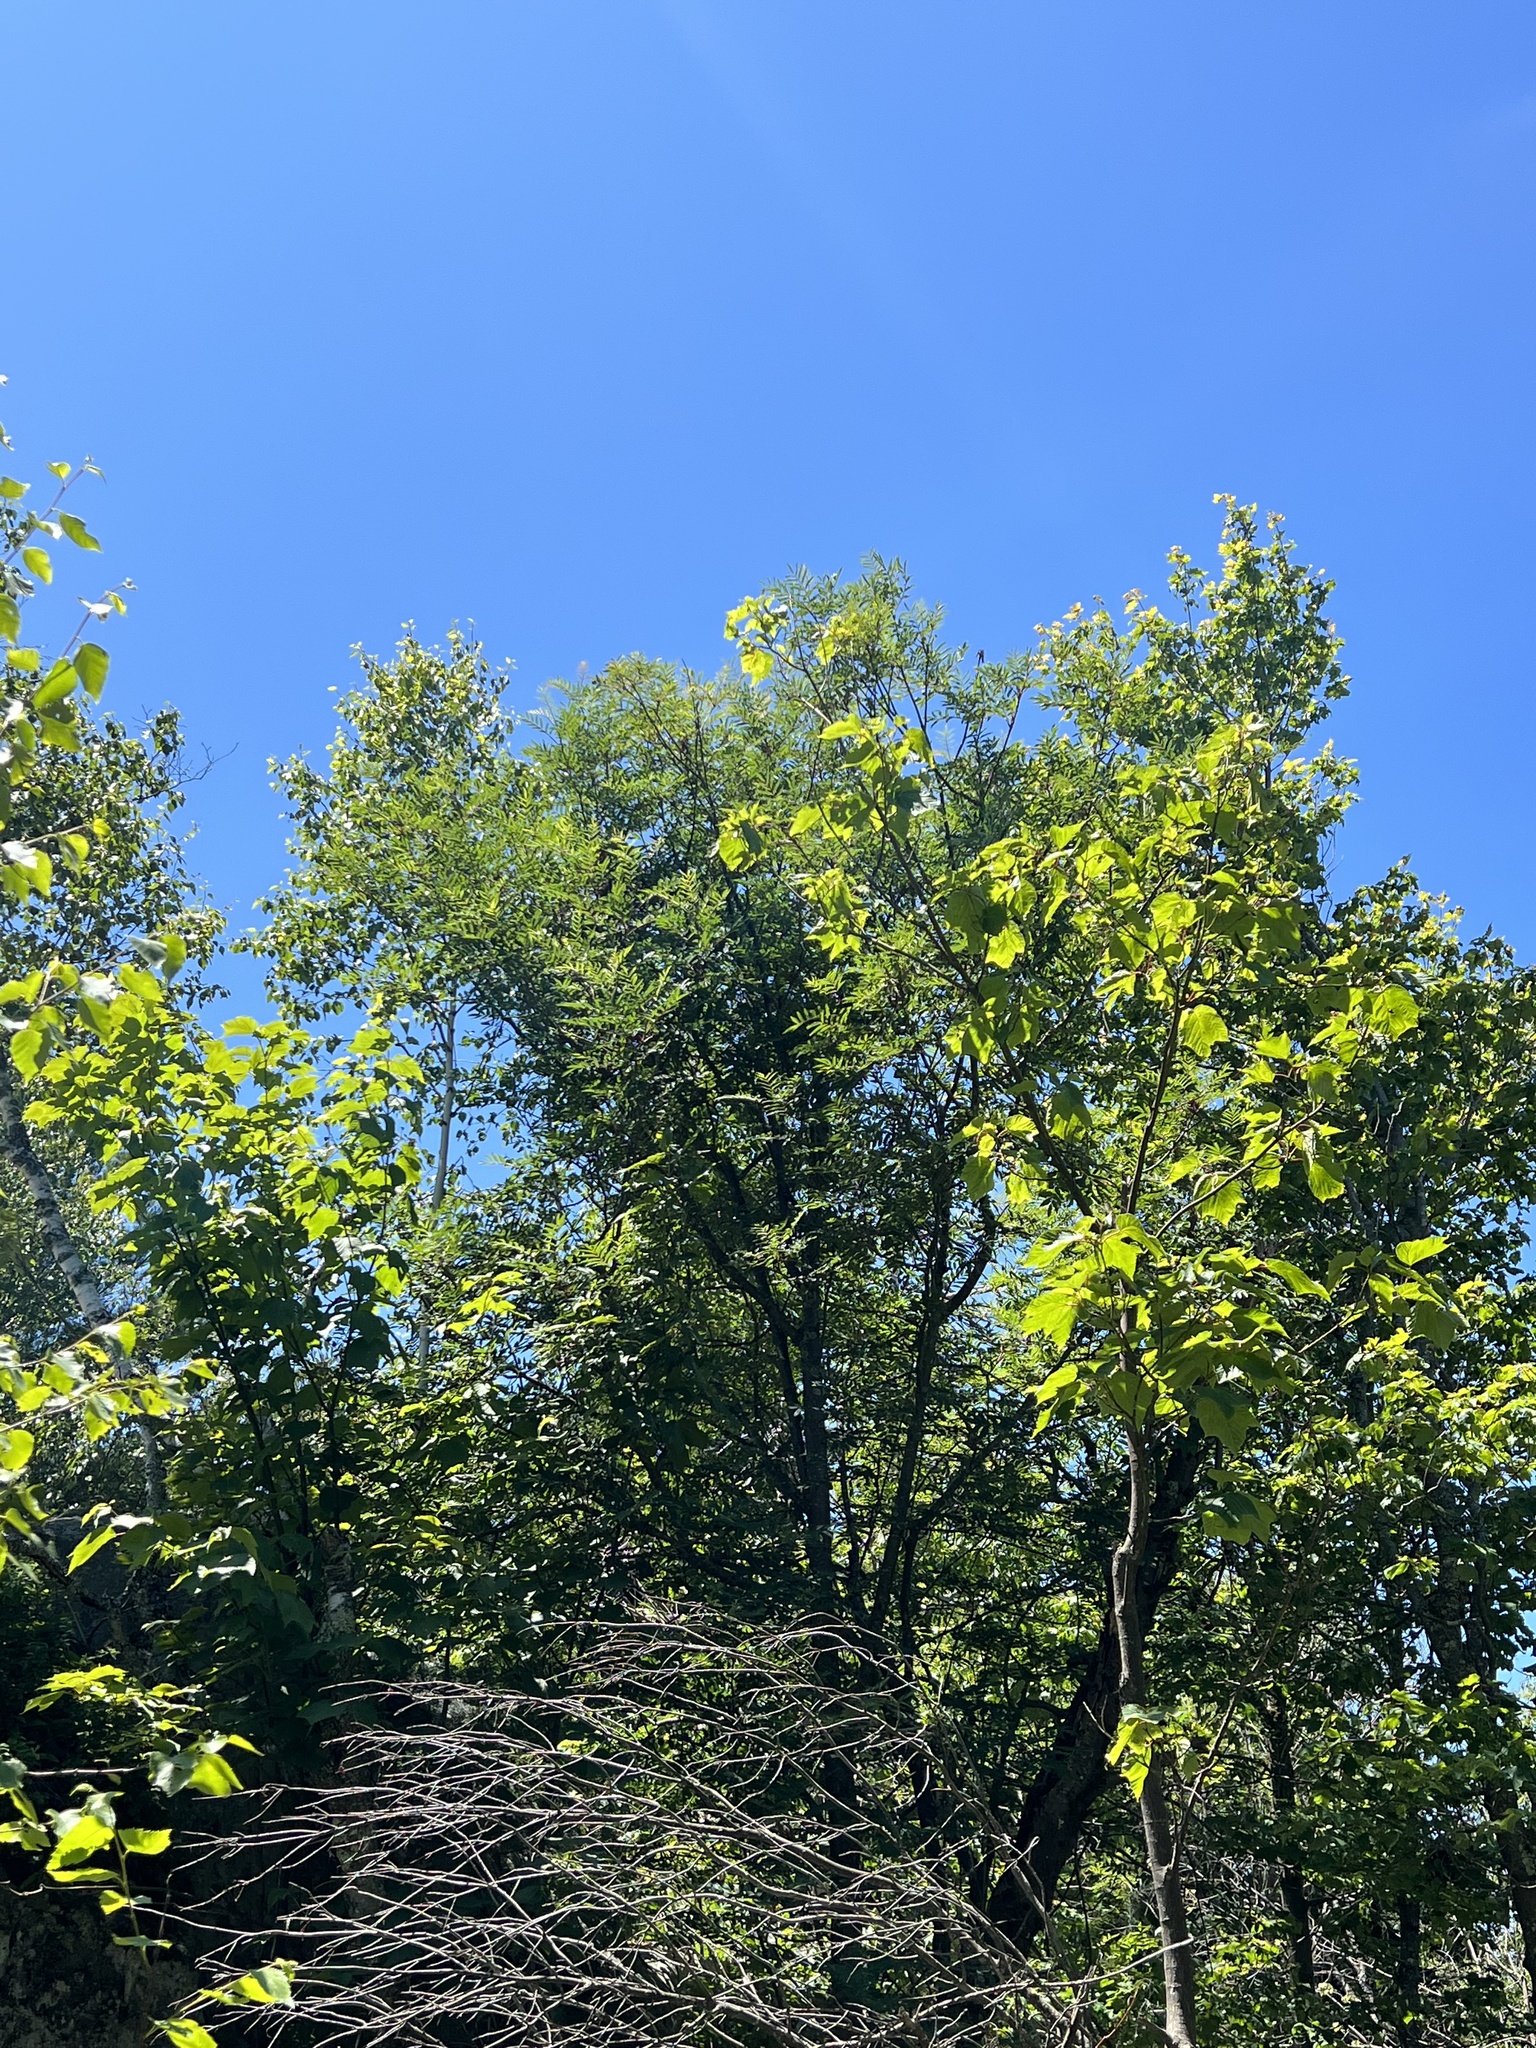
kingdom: Plantae
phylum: Tracheophyta
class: Magnoliopsida
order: Rosales
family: Rosaceae
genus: Sorbus
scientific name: Sorbus americana
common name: American mountain-ash
